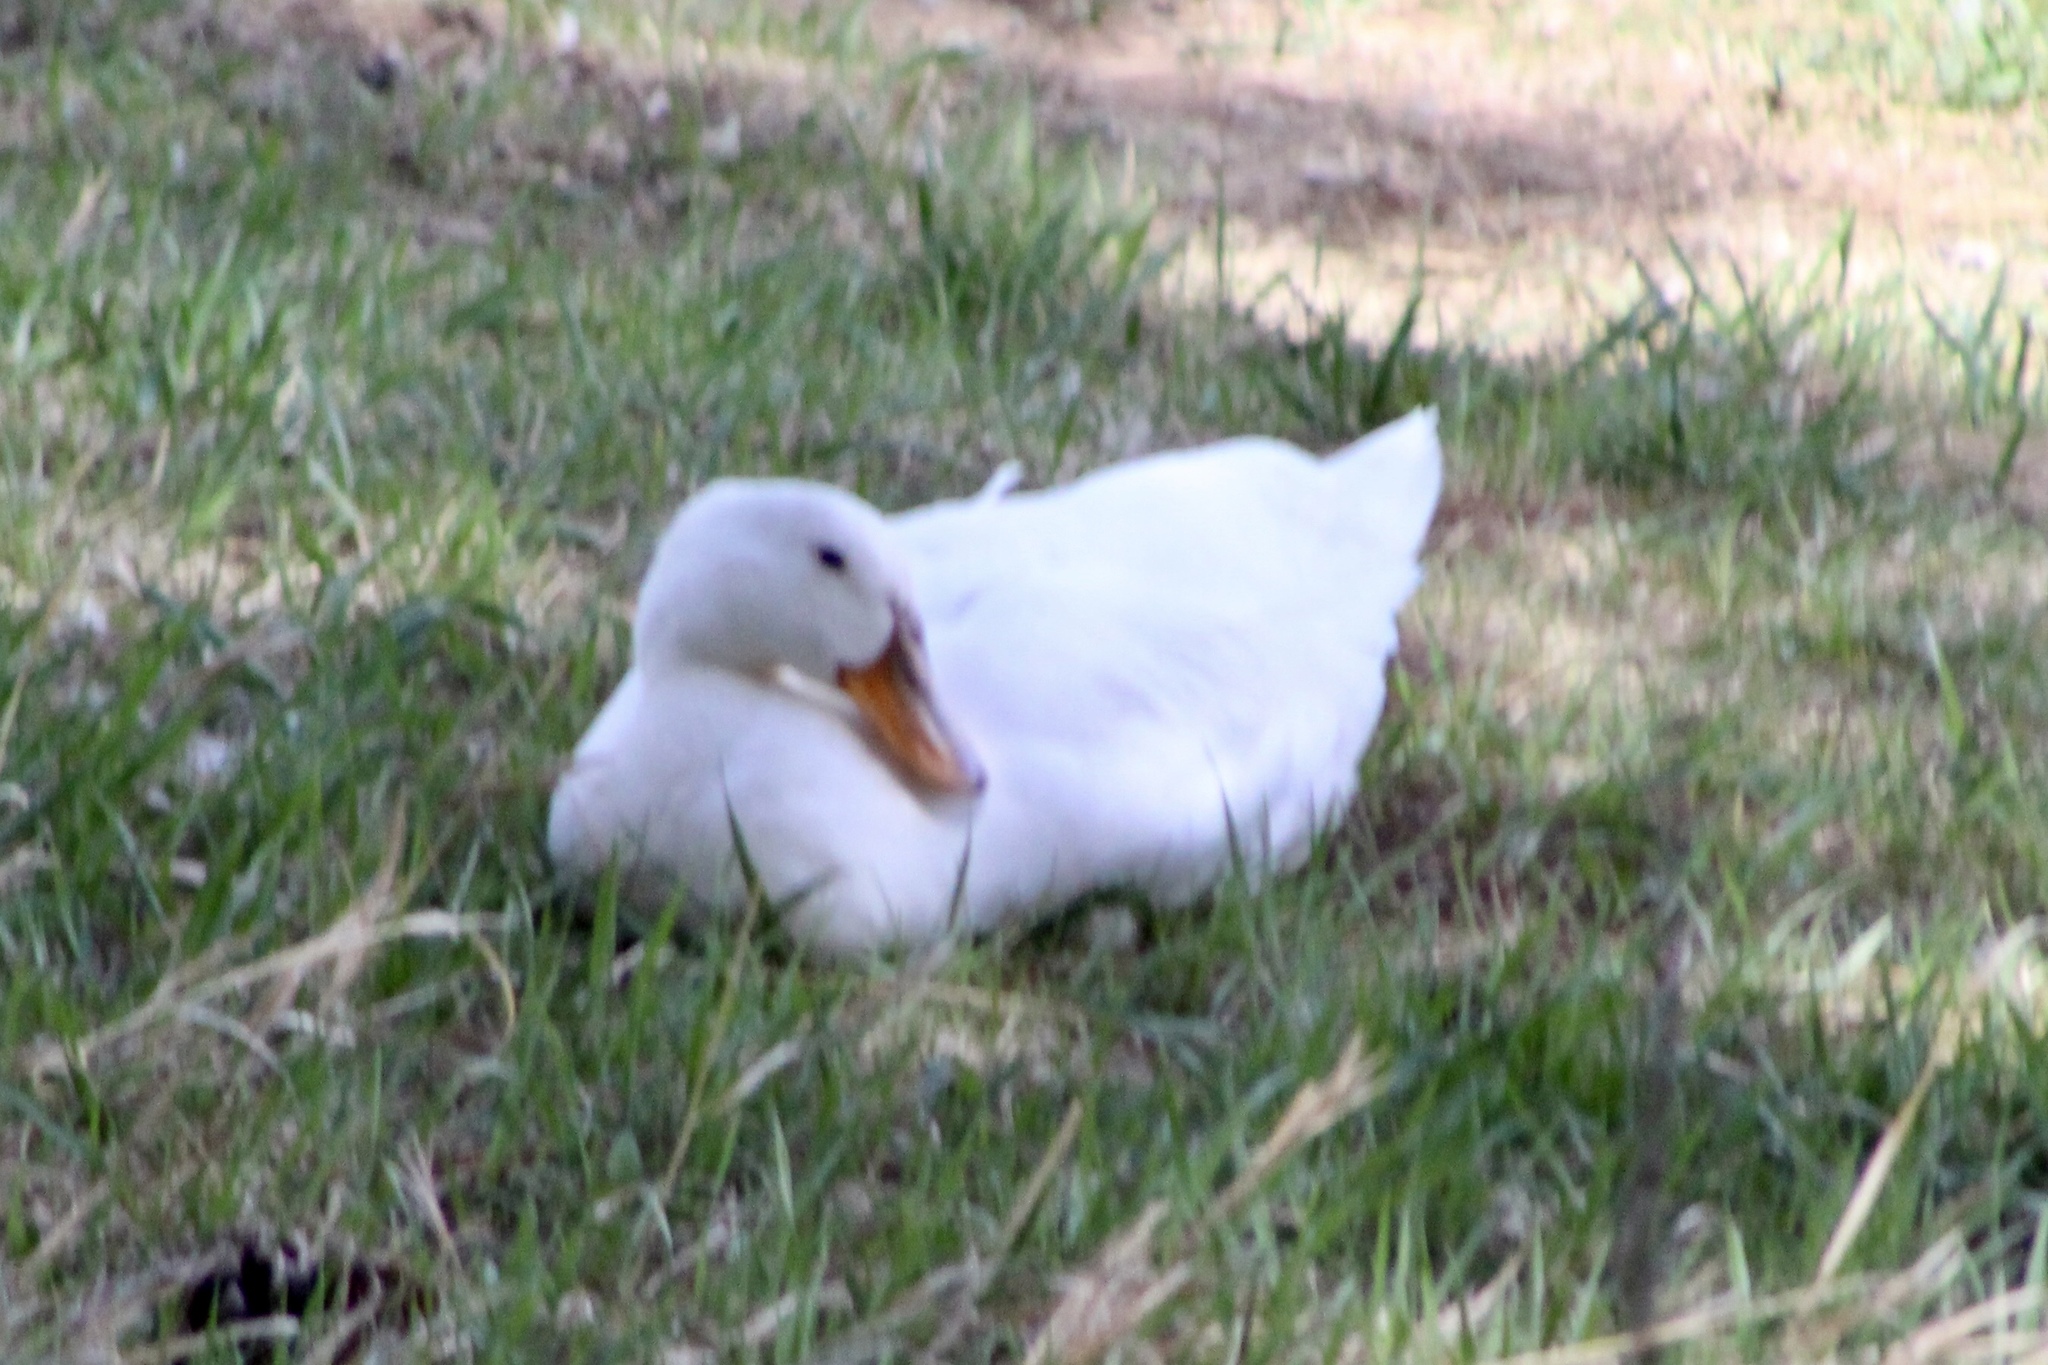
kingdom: Animalia
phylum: Chordata
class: Aves
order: Anseriformes
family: Anatidae
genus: Anas
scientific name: Anas platyrhynchos
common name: Mallard
